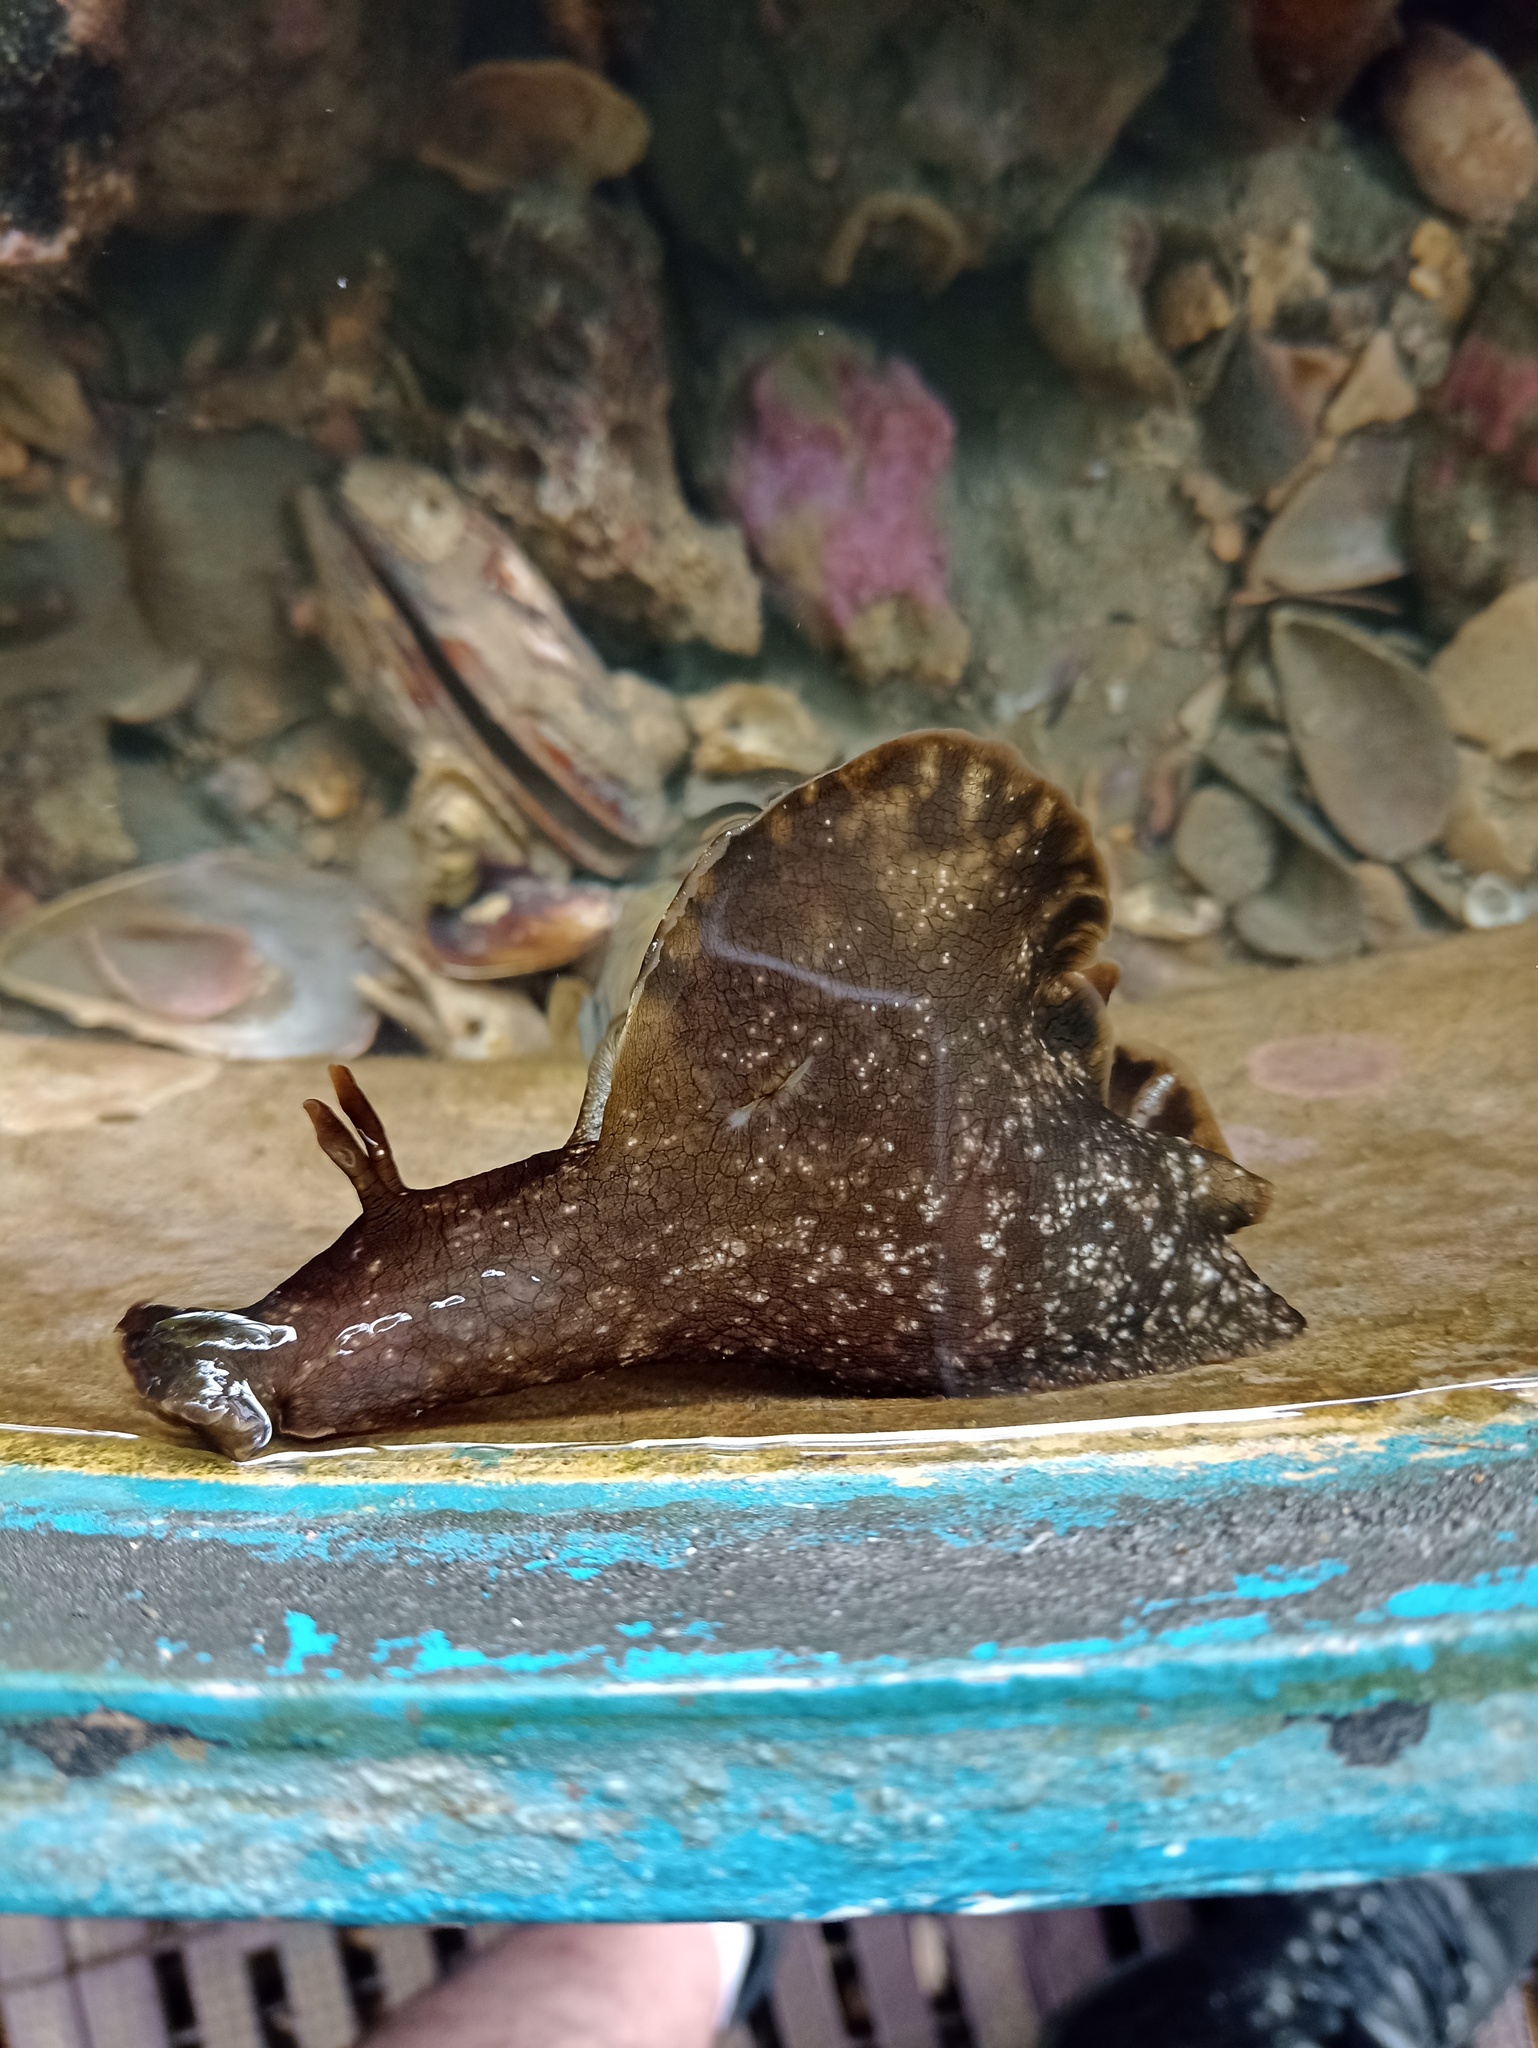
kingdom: Animalia
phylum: Mollusca
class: Gastropoda
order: Aplysiida
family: Aplysiidae
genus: Aplysia
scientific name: Aplysia brasiliana
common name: Mottled seahare
